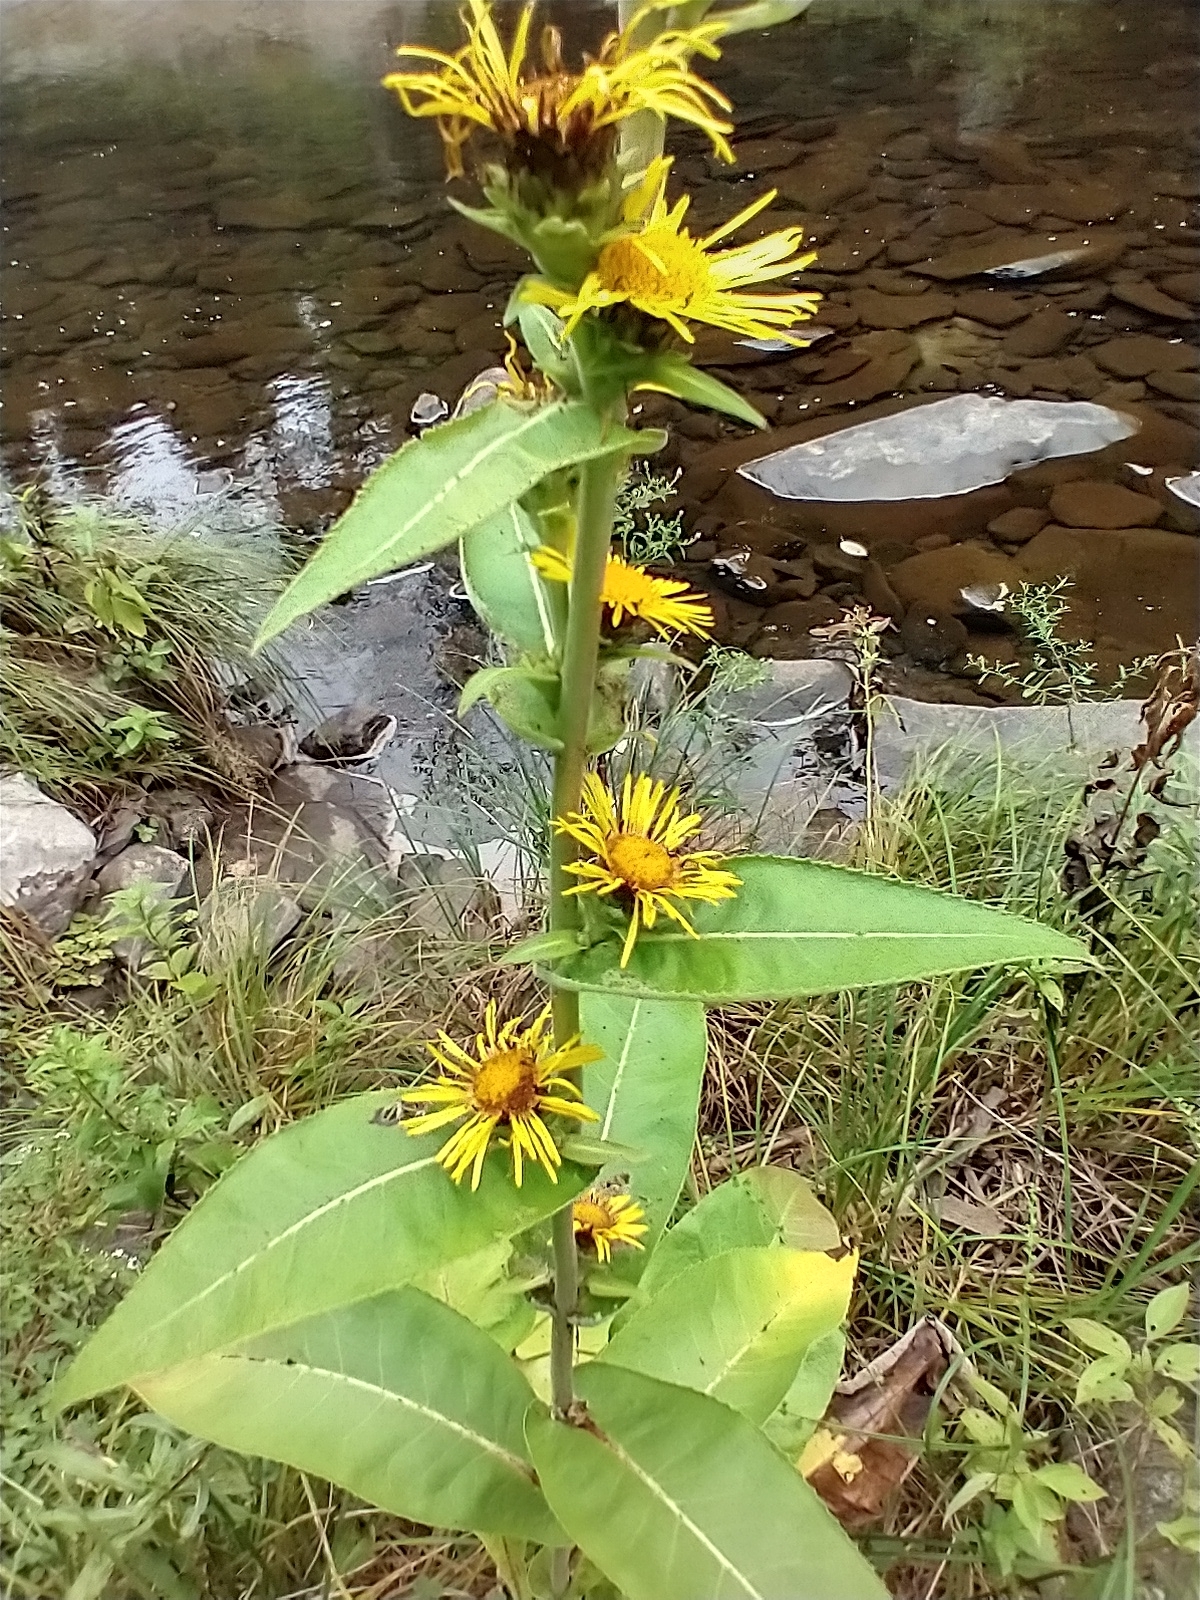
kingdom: Plantae
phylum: Tracheophyta
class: Magnoliopsida
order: Asterales
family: Asteraceae
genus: Inula
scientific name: Inula racemosa
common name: Indian elecampane
